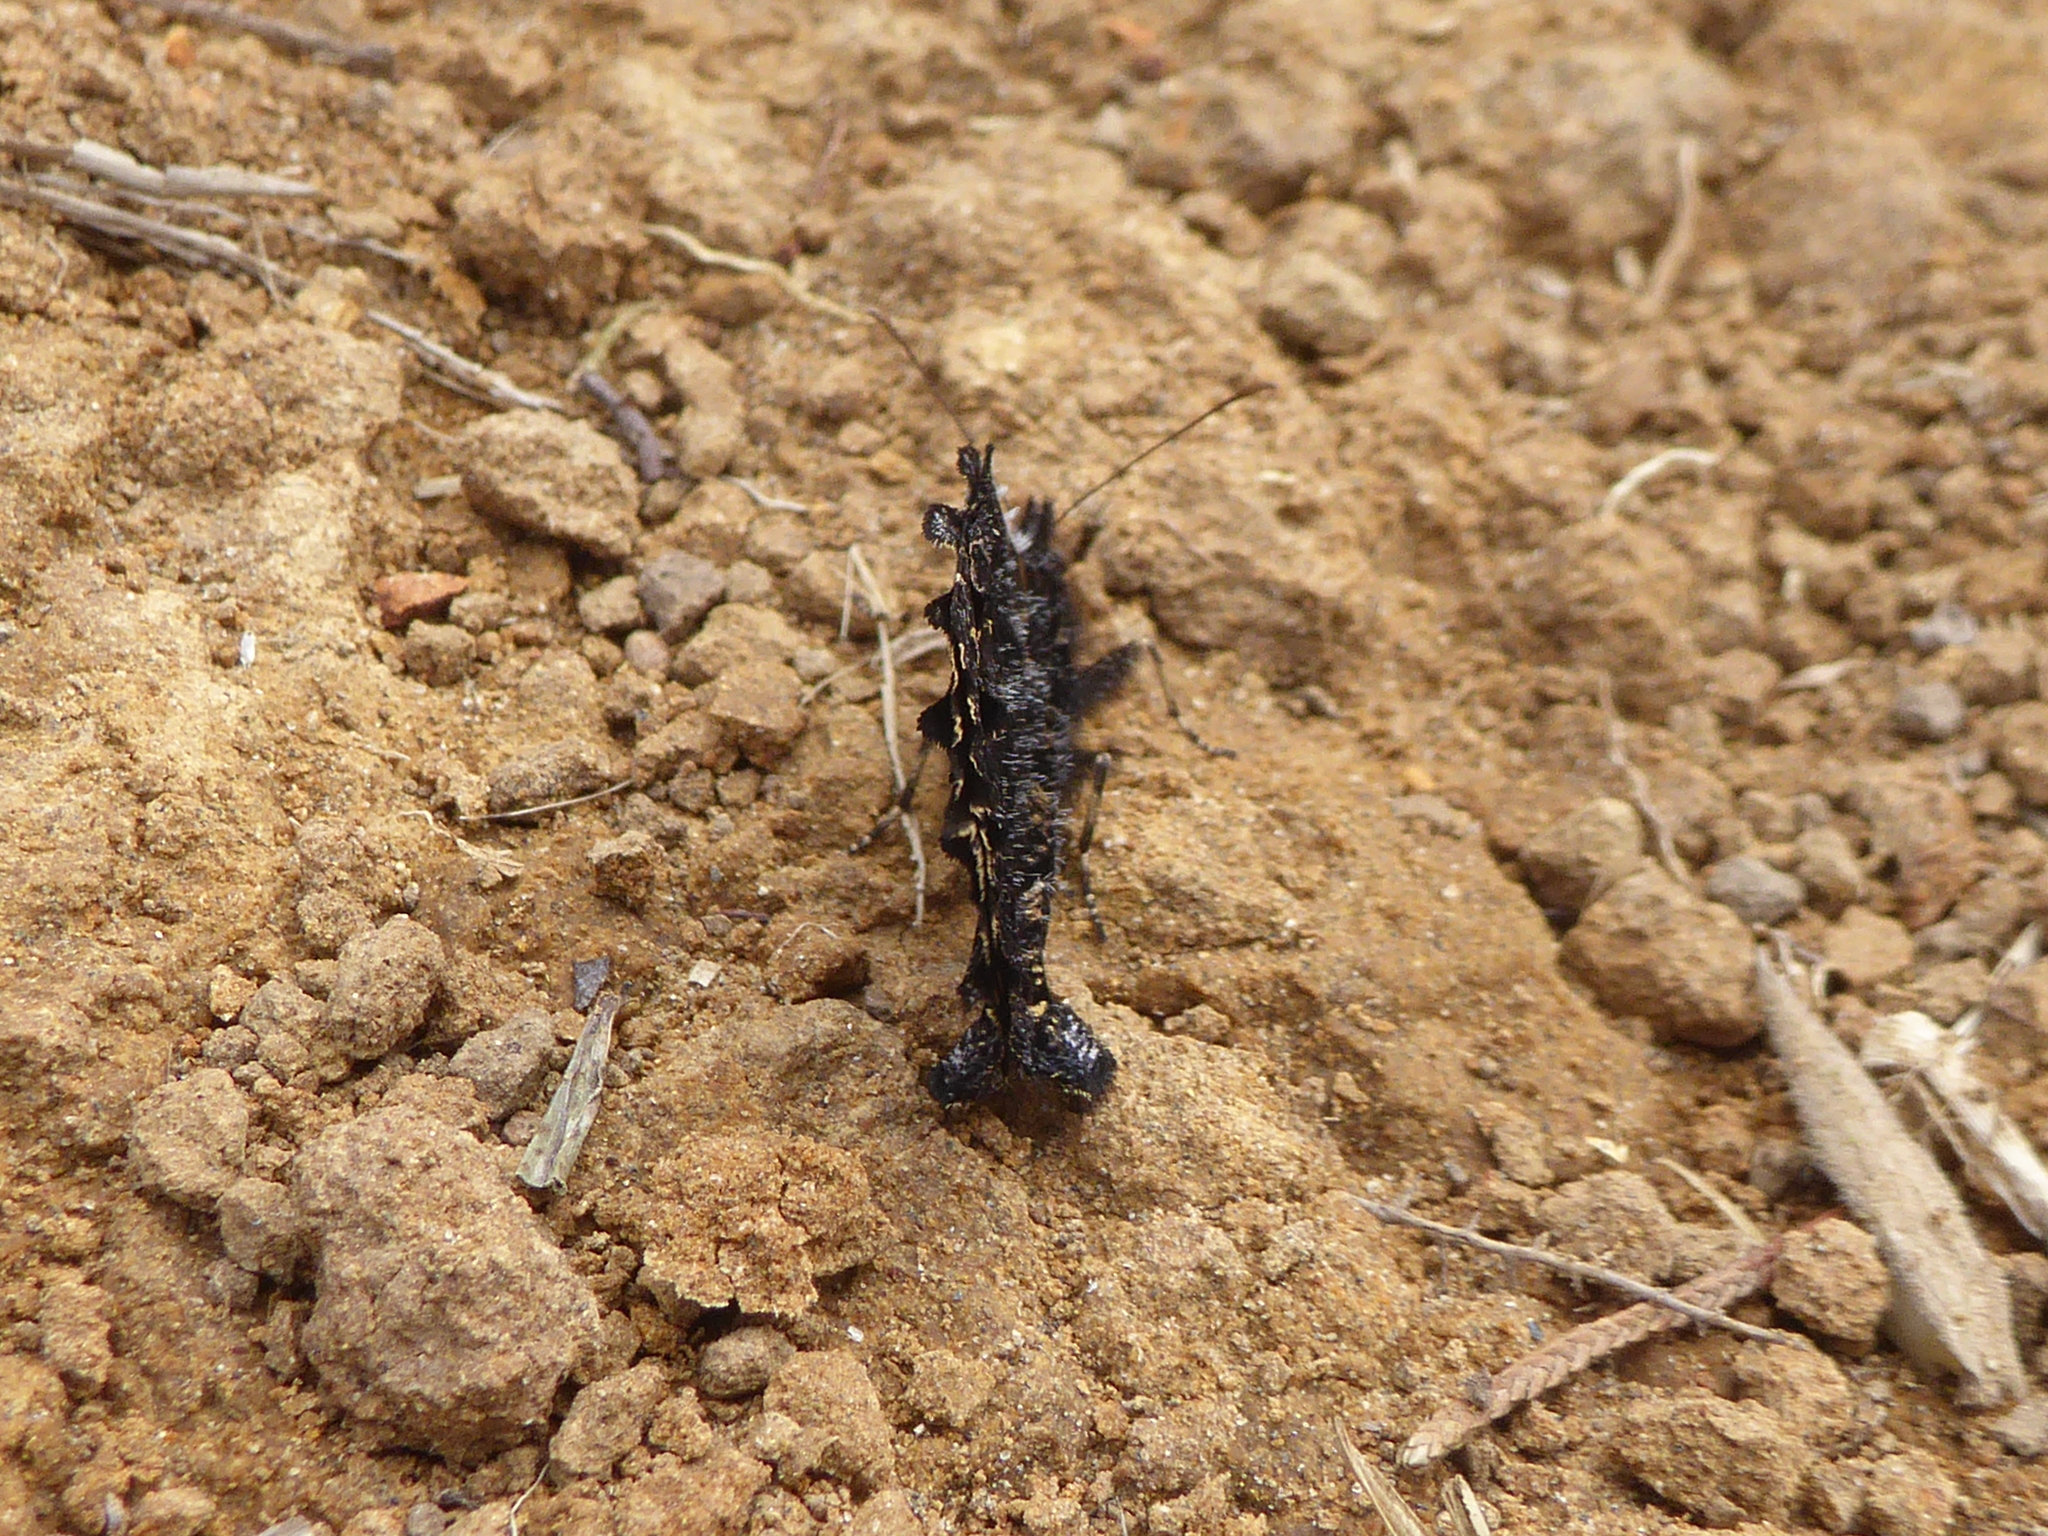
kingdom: Animalia
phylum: Arthropoda
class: Insecta
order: Lepidoptera
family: Nymphalidae
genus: Steroma
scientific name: Steroma bega
